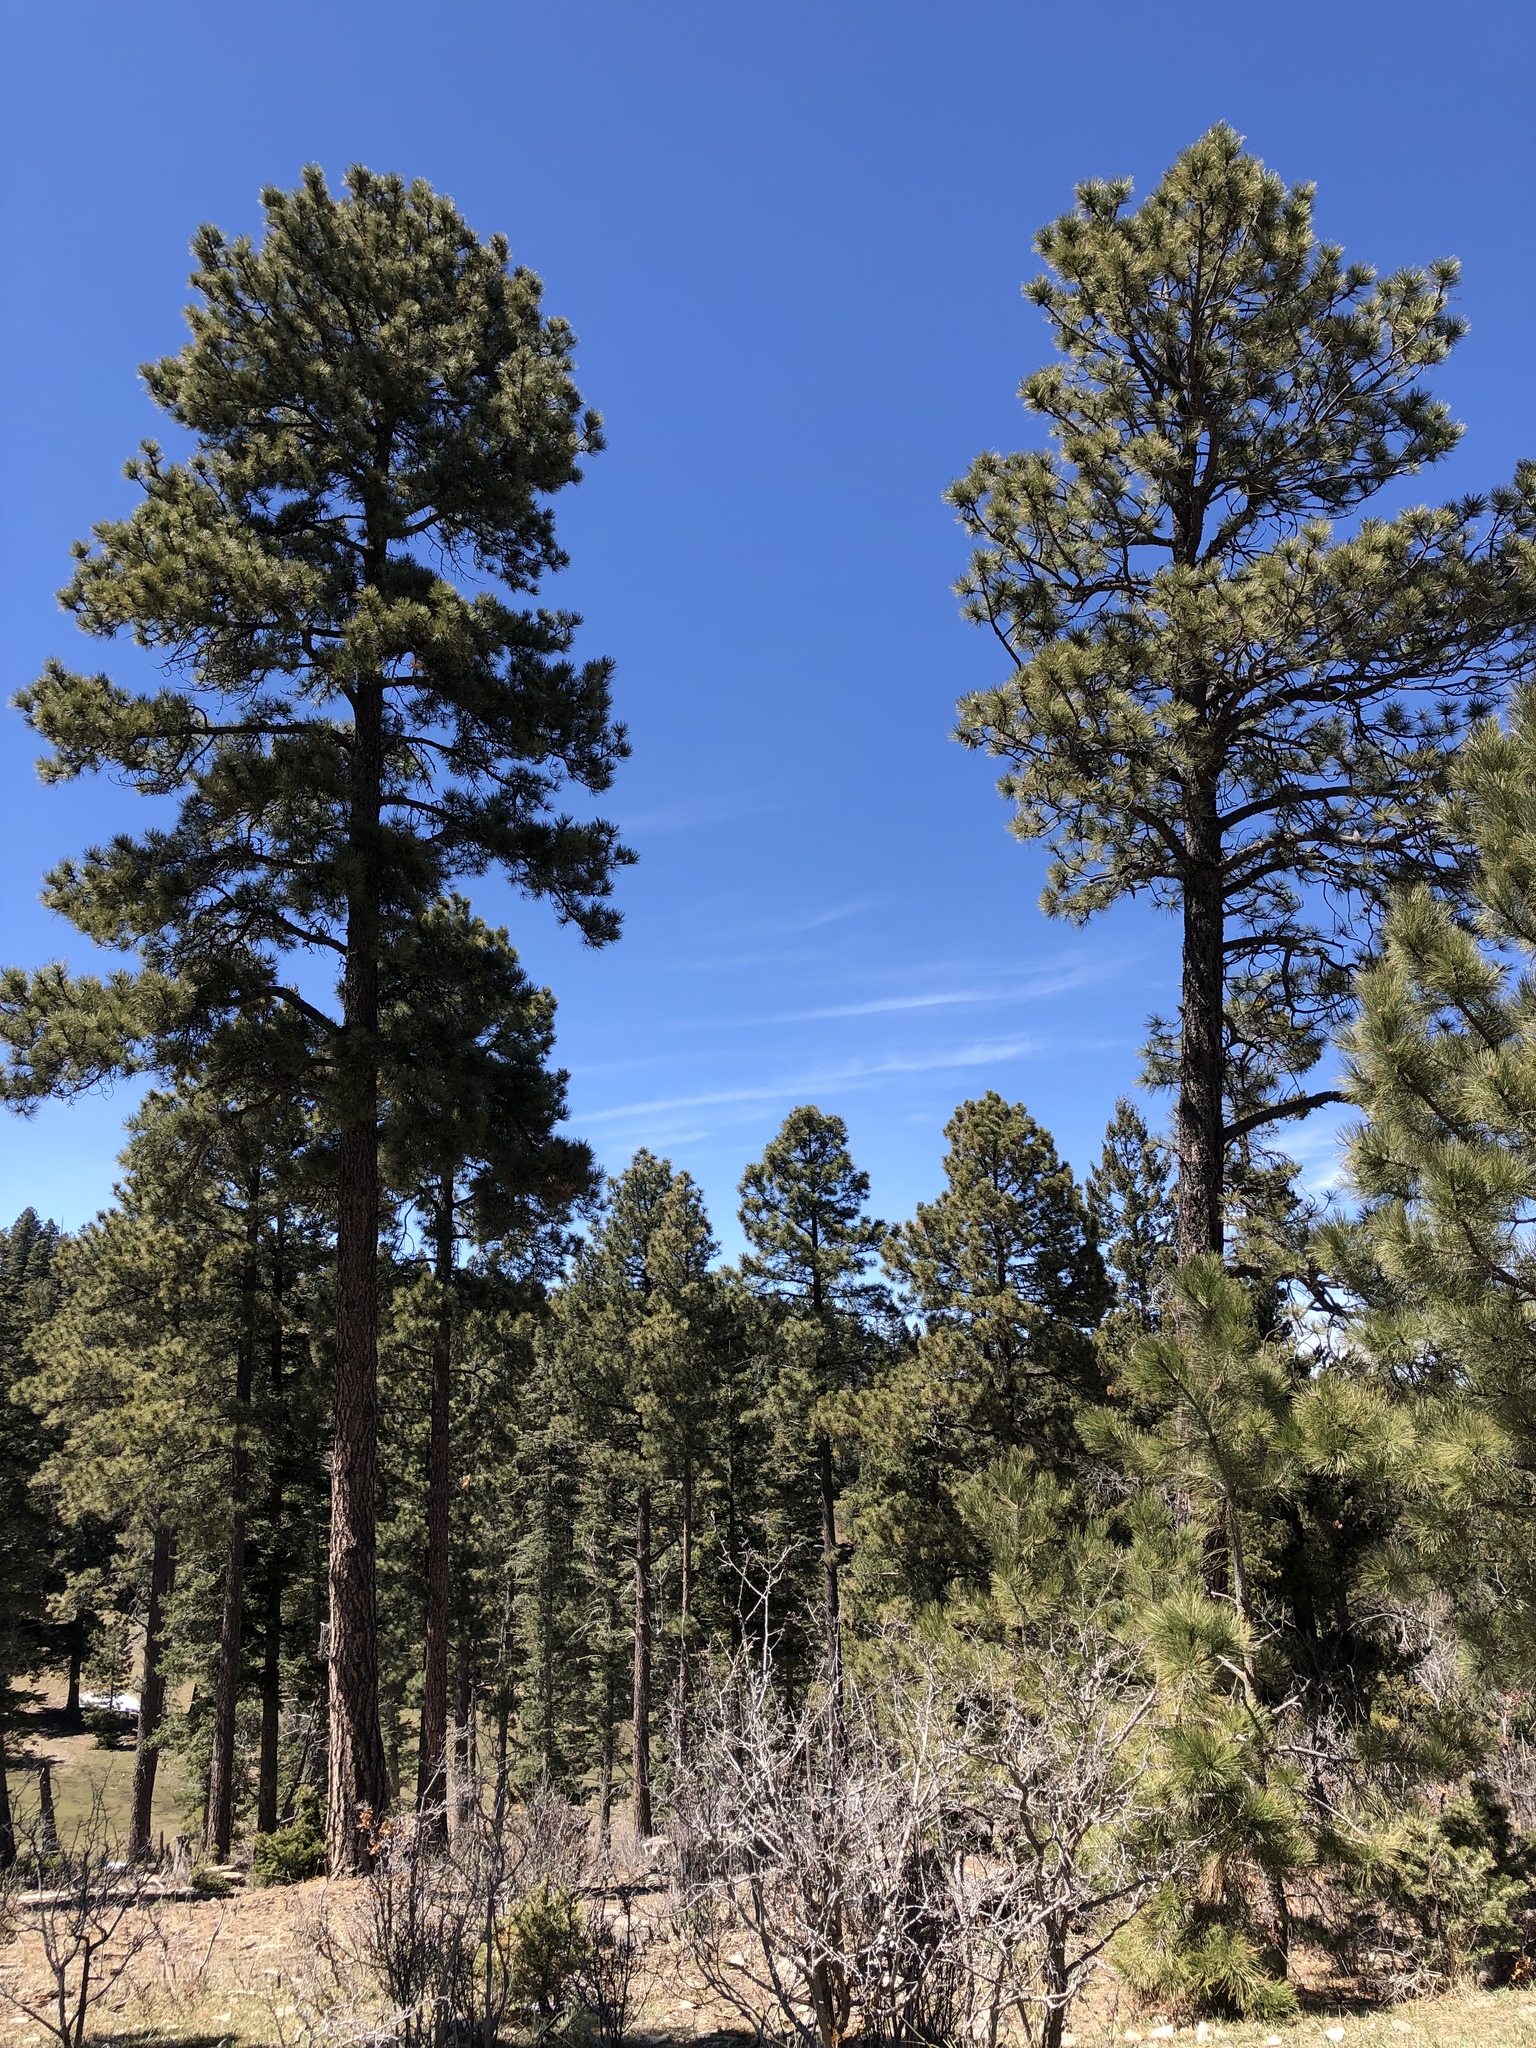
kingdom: Plantae
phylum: Tracheophyta
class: Pinopsida
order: Pinales
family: Pinaceae
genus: Pinus
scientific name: Pinus ponderosa
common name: Western yellow-pine
